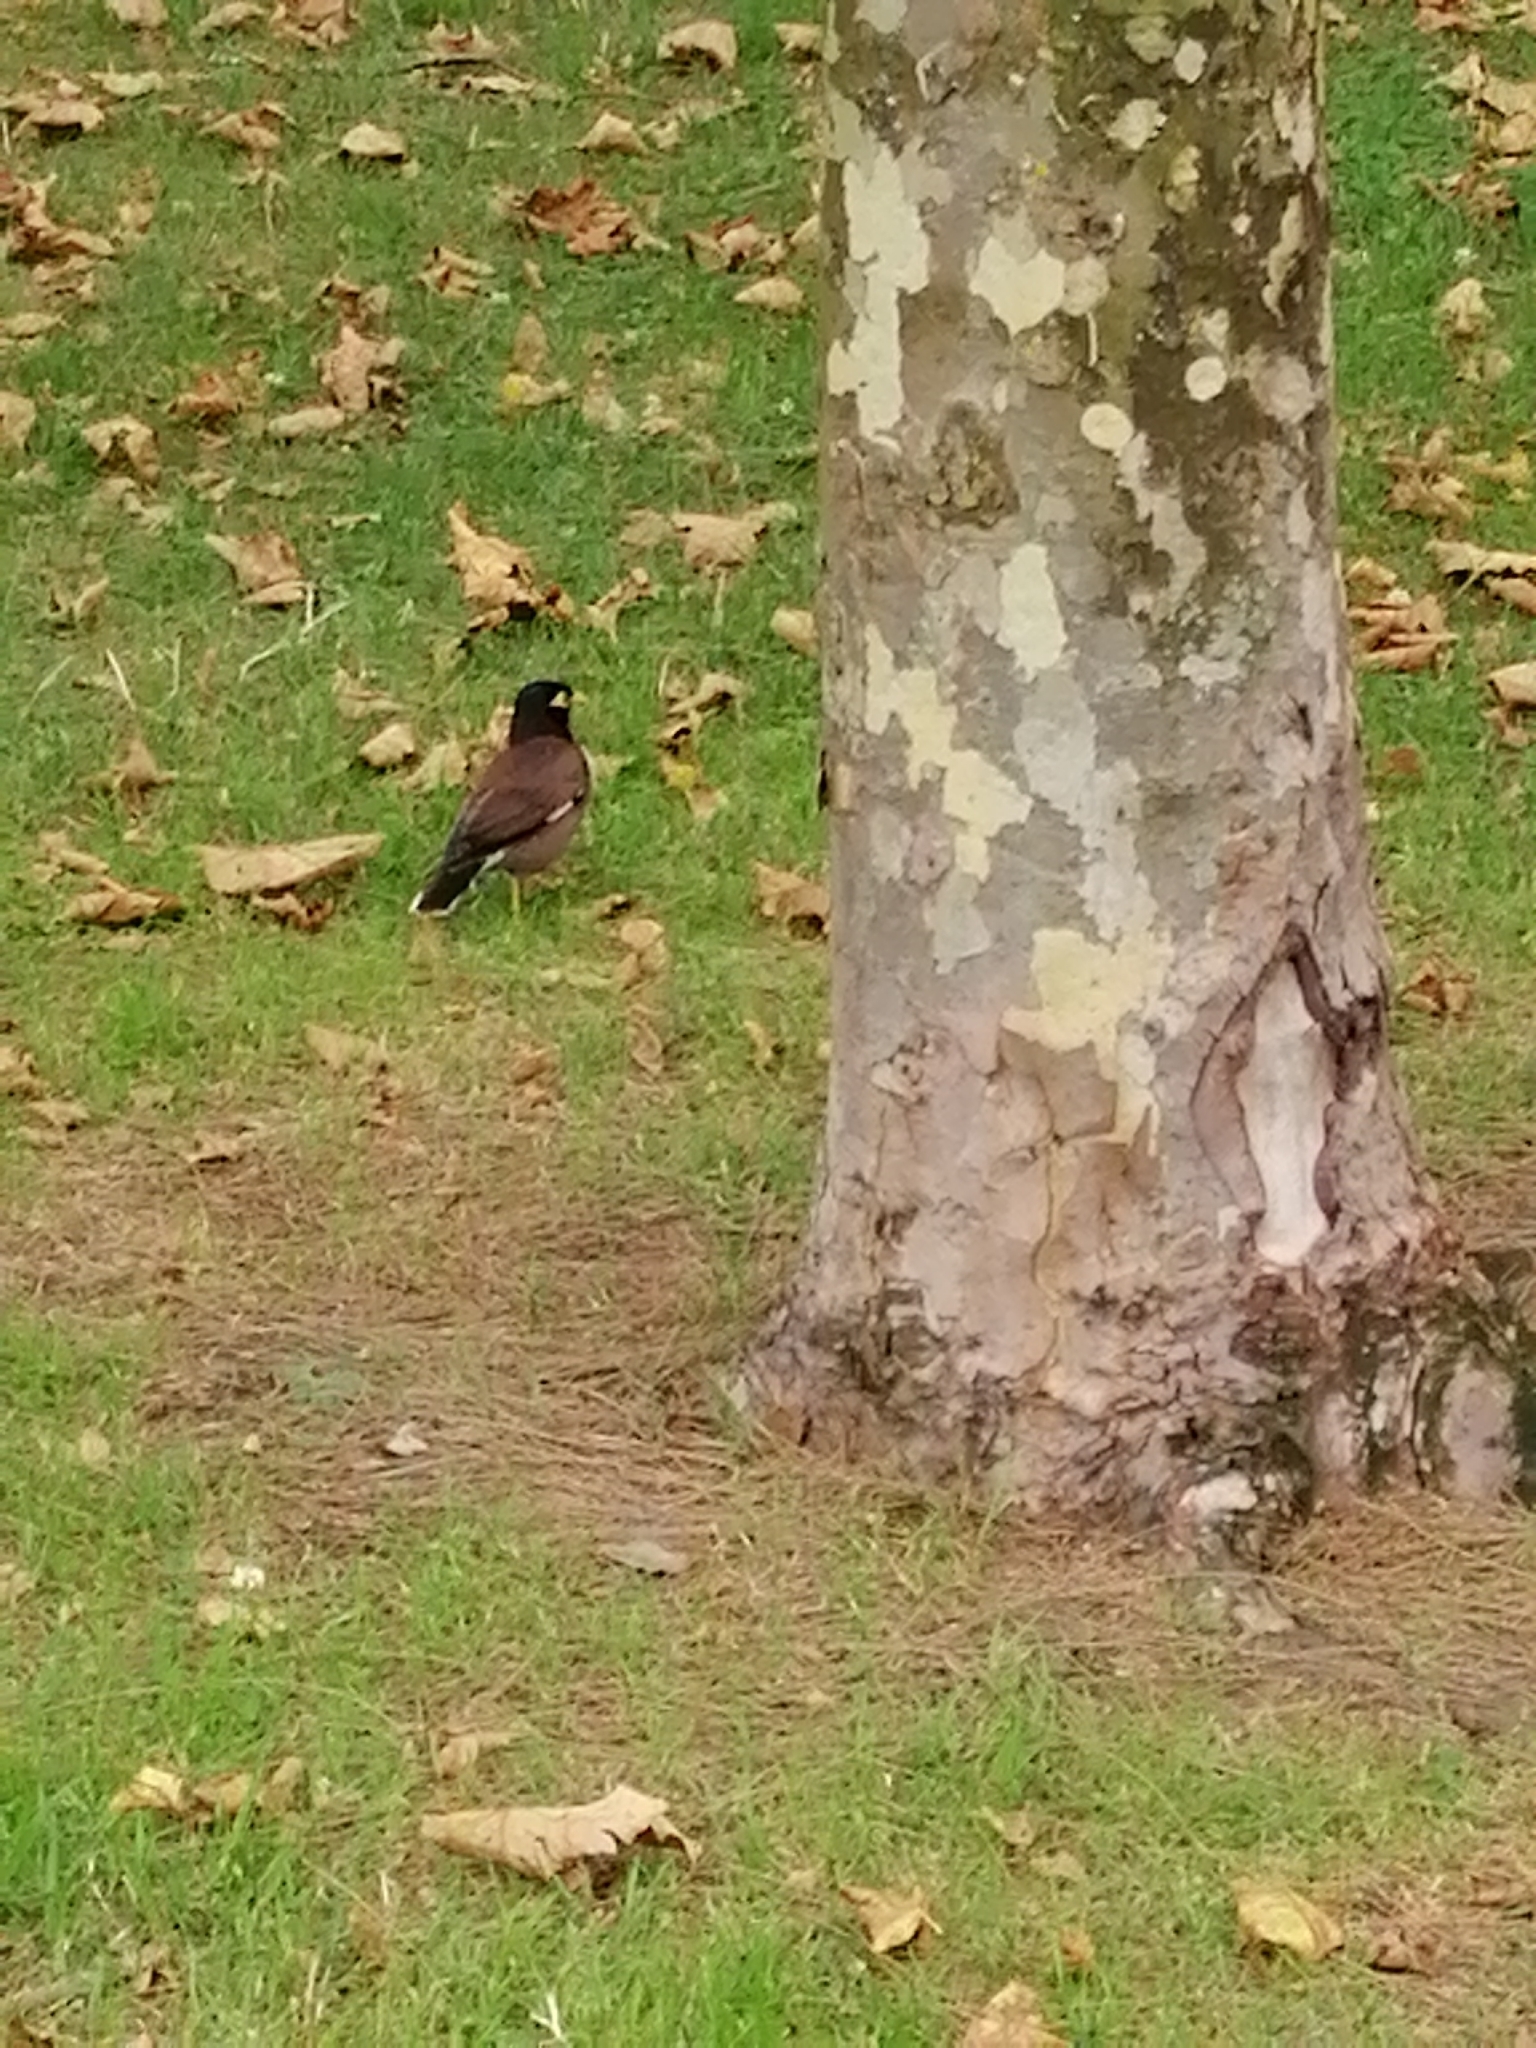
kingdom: Animalia
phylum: Chordata
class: Aves
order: Passeriformes
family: Sturnidae
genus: Acridotheres
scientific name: Acridotheres tristis
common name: Common myna
